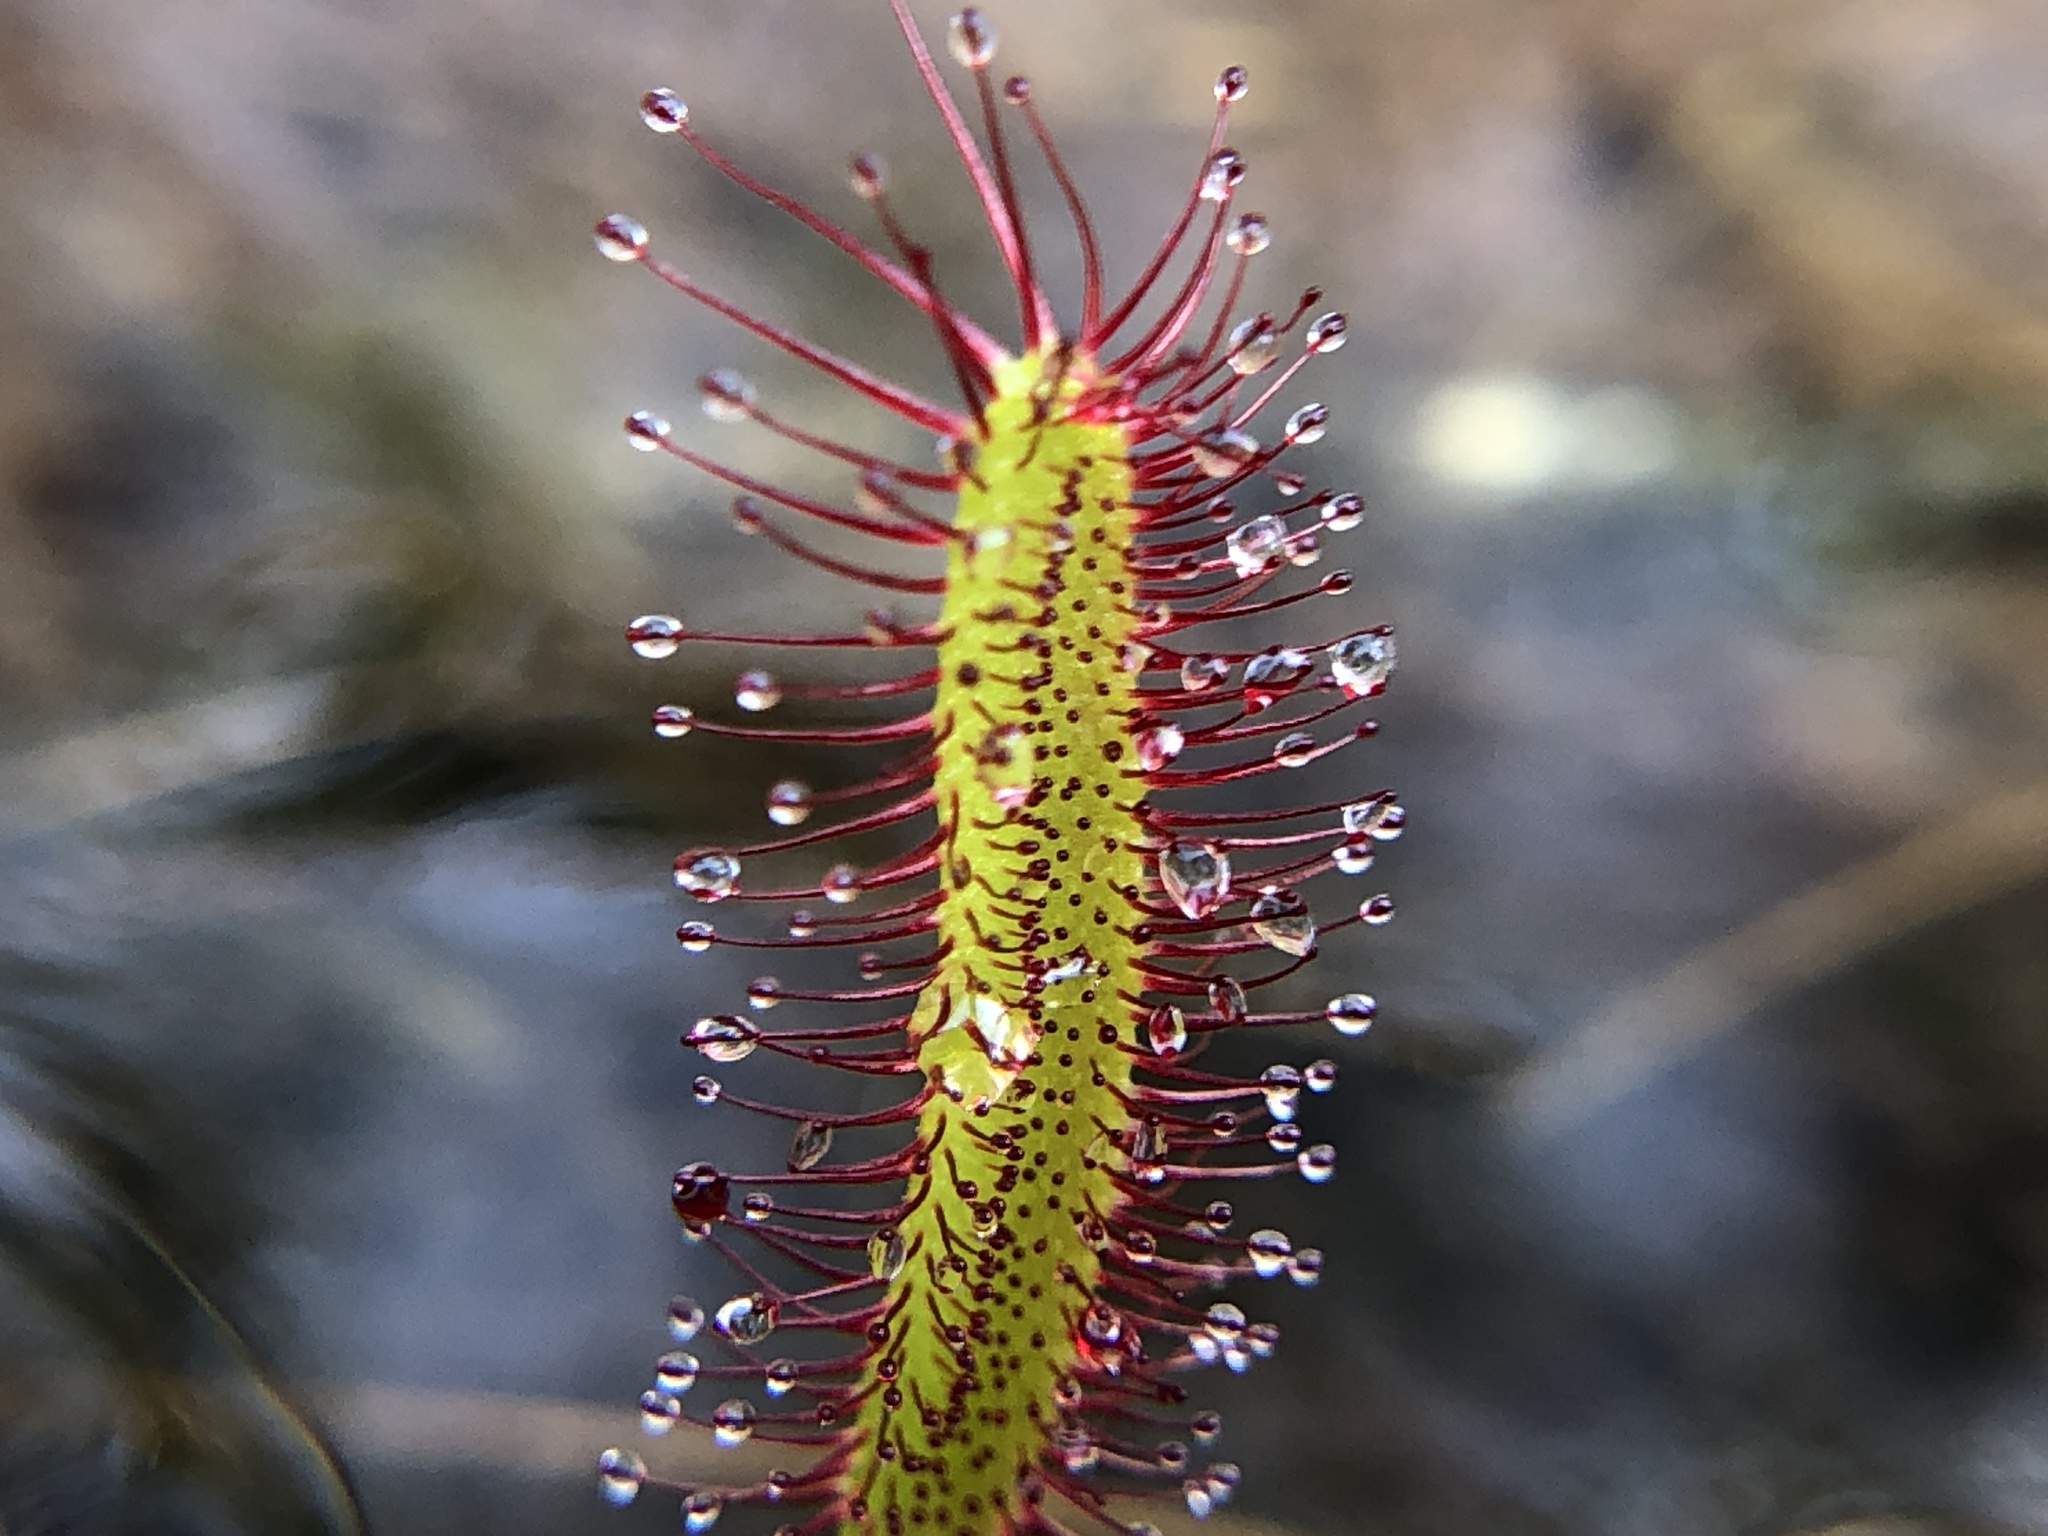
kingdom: Plantae
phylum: Tracheophyta
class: Magnoliopsida
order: Caryophyllales
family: Droseraceae
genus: Drosera
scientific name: Drosera capensis
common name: Cape sundew
